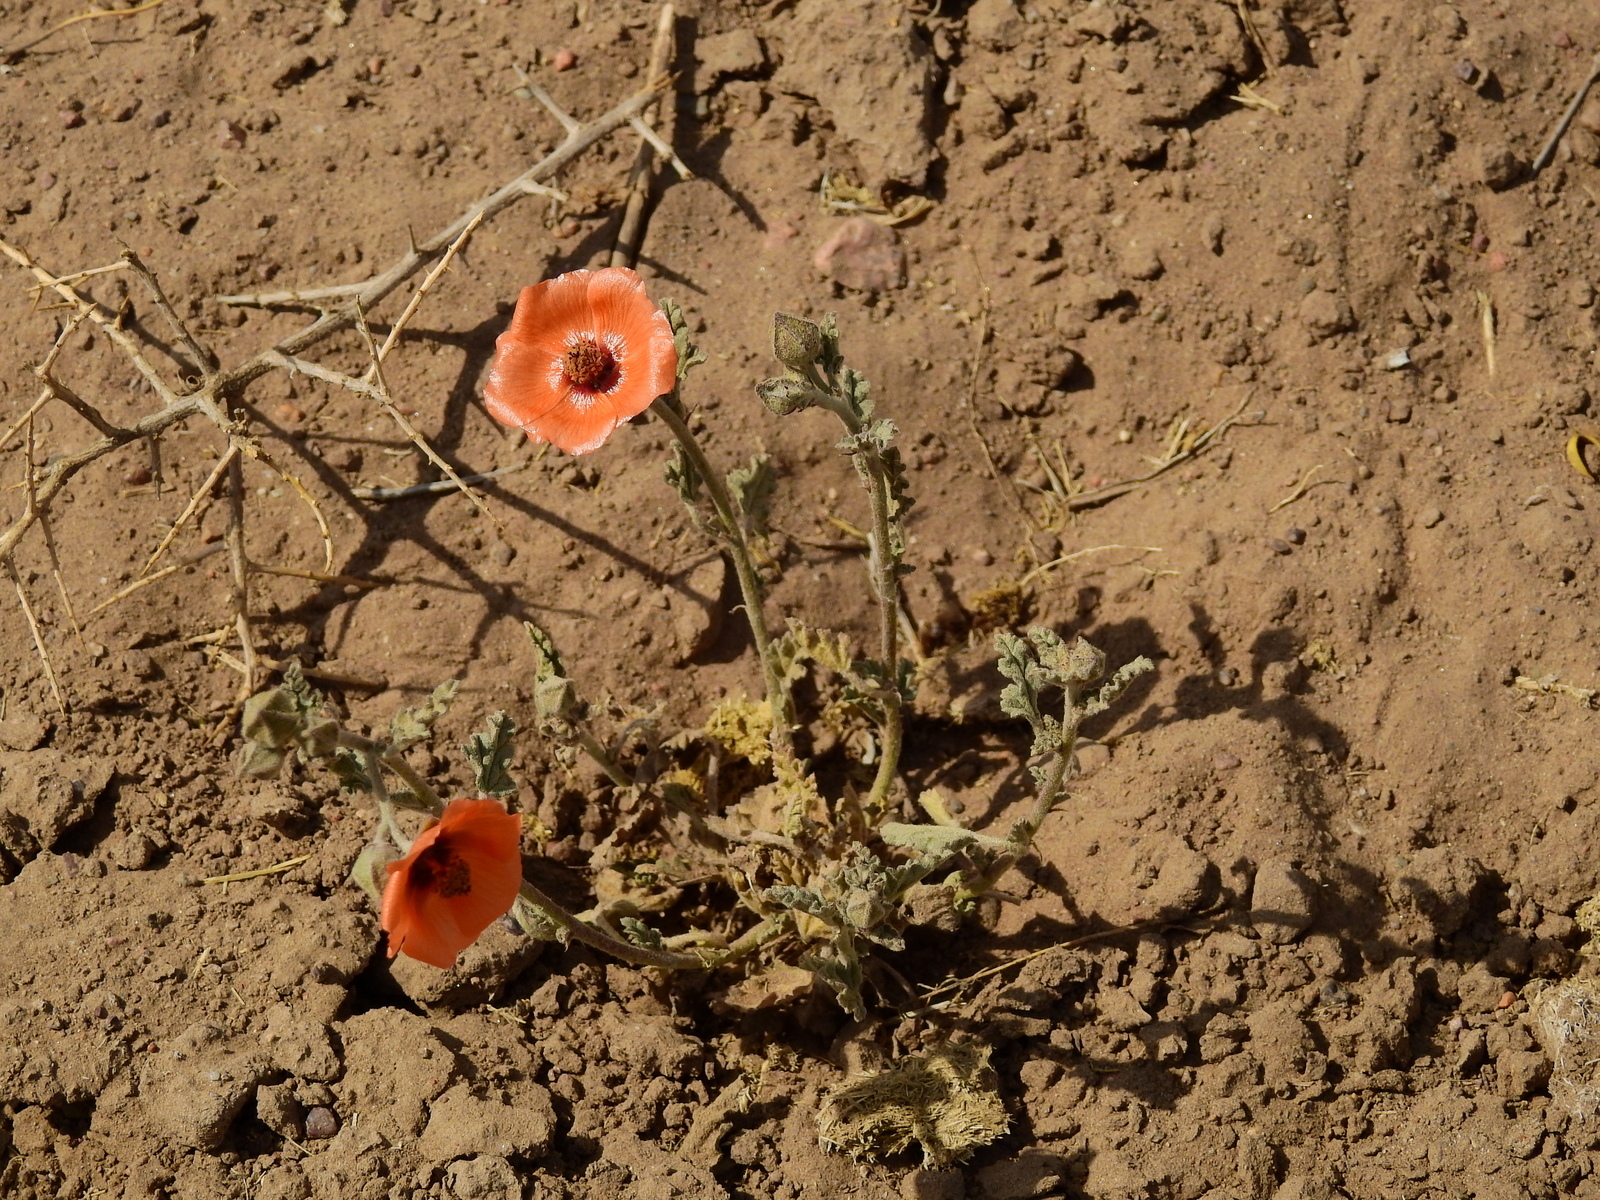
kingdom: Plantae
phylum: Tracheophyta
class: Magnoliopsida
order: Malvales
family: Malvaceae
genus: Sphaeralcea
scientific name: Sphaeralcea miniata
